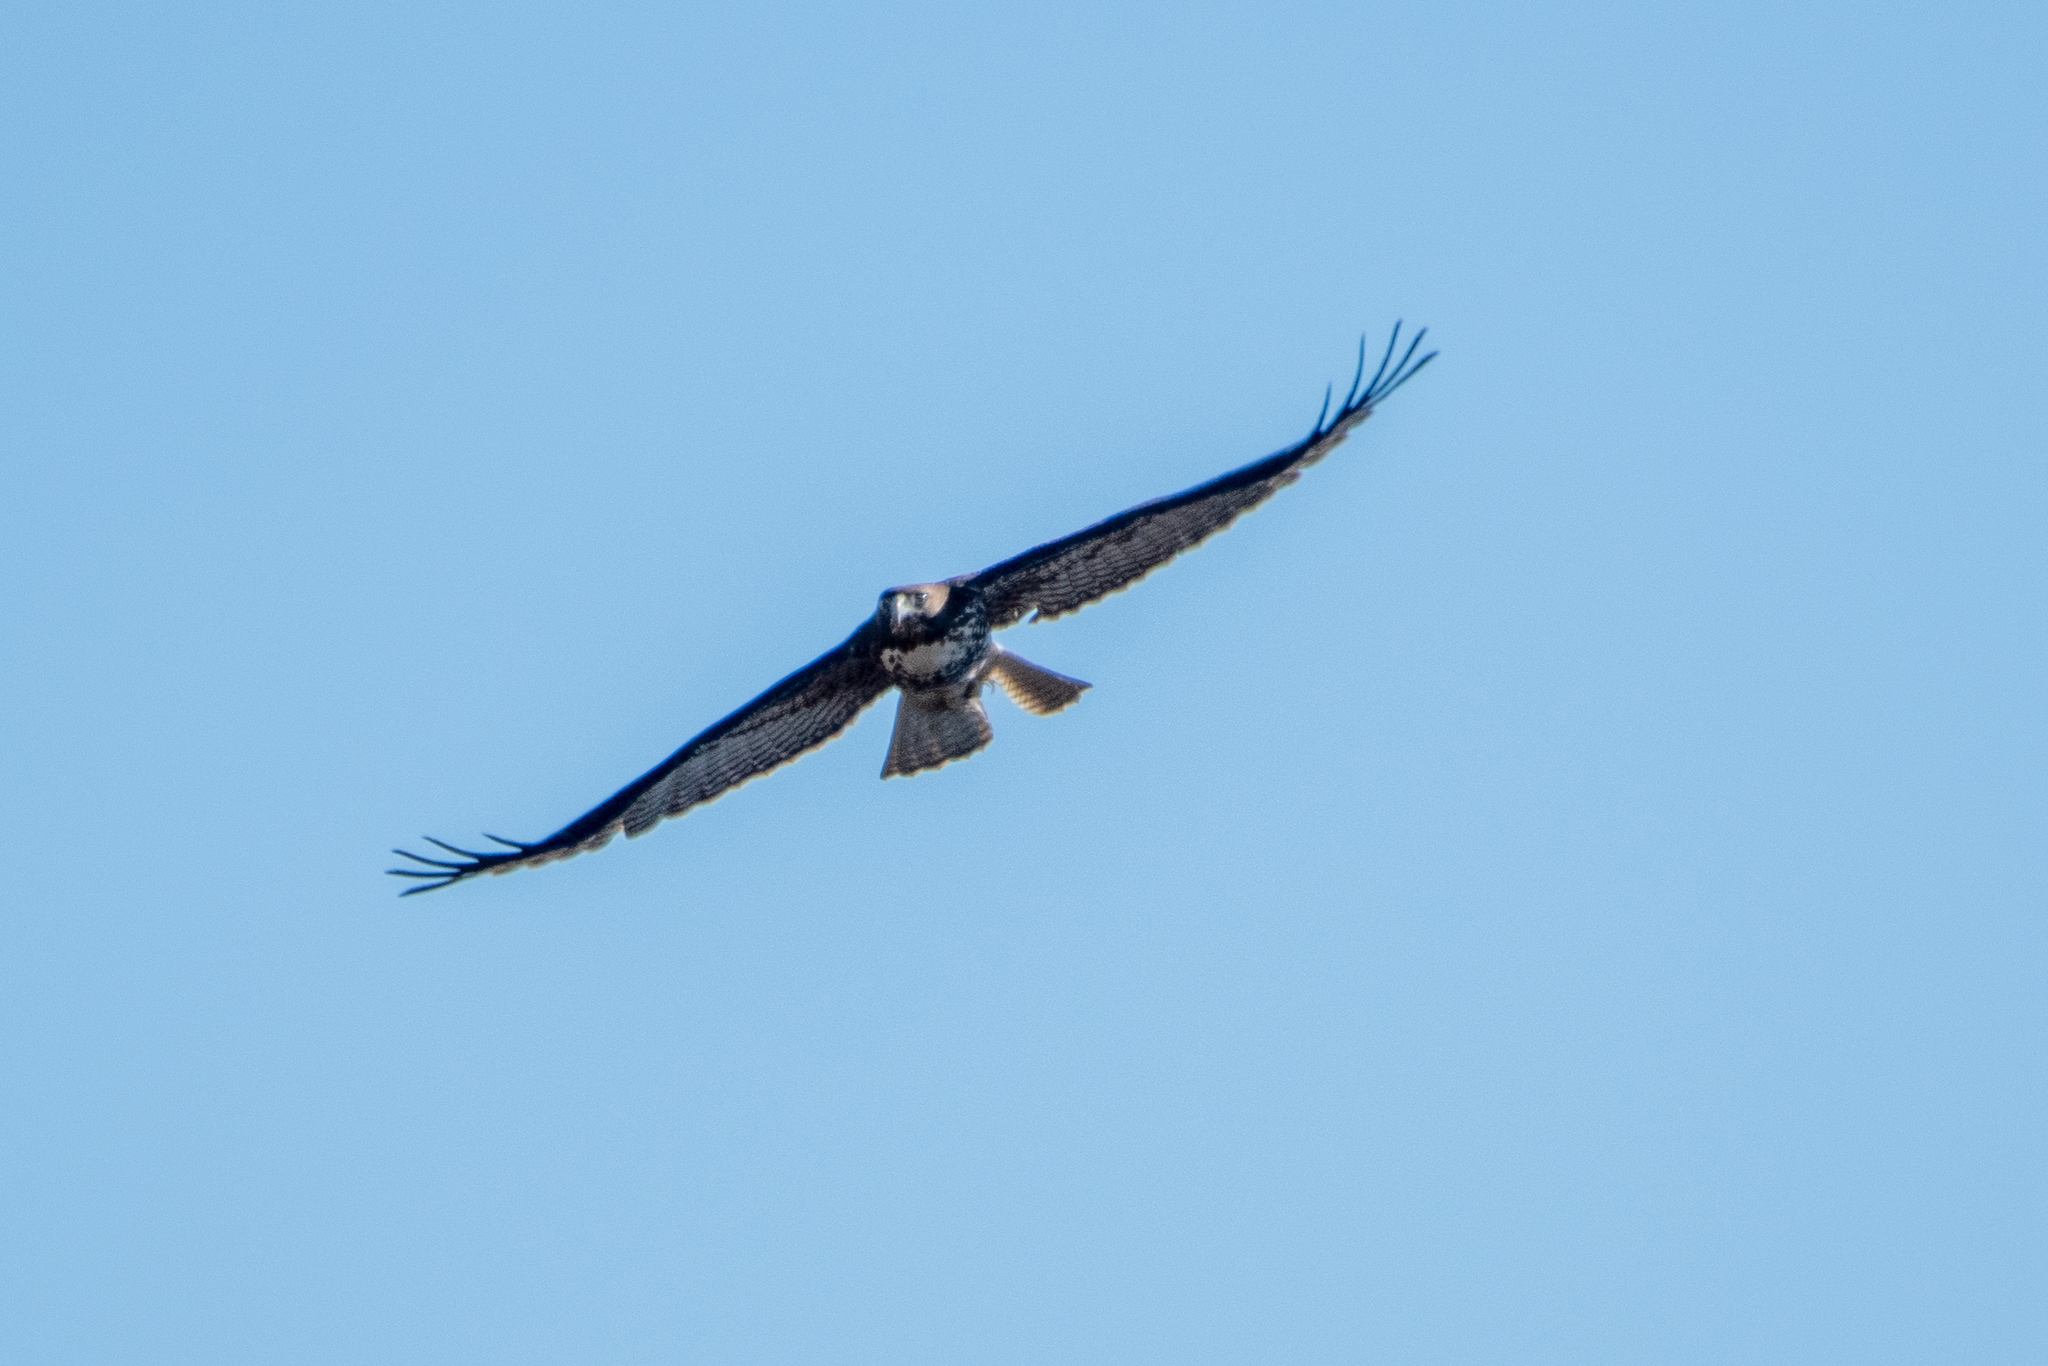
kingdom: Animalia
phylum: Chordata
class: Aves
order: Accipitriformes
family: Accipitridae
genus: Buteo
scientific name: Buteo jamaicensis
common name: Red-tailed hawk
